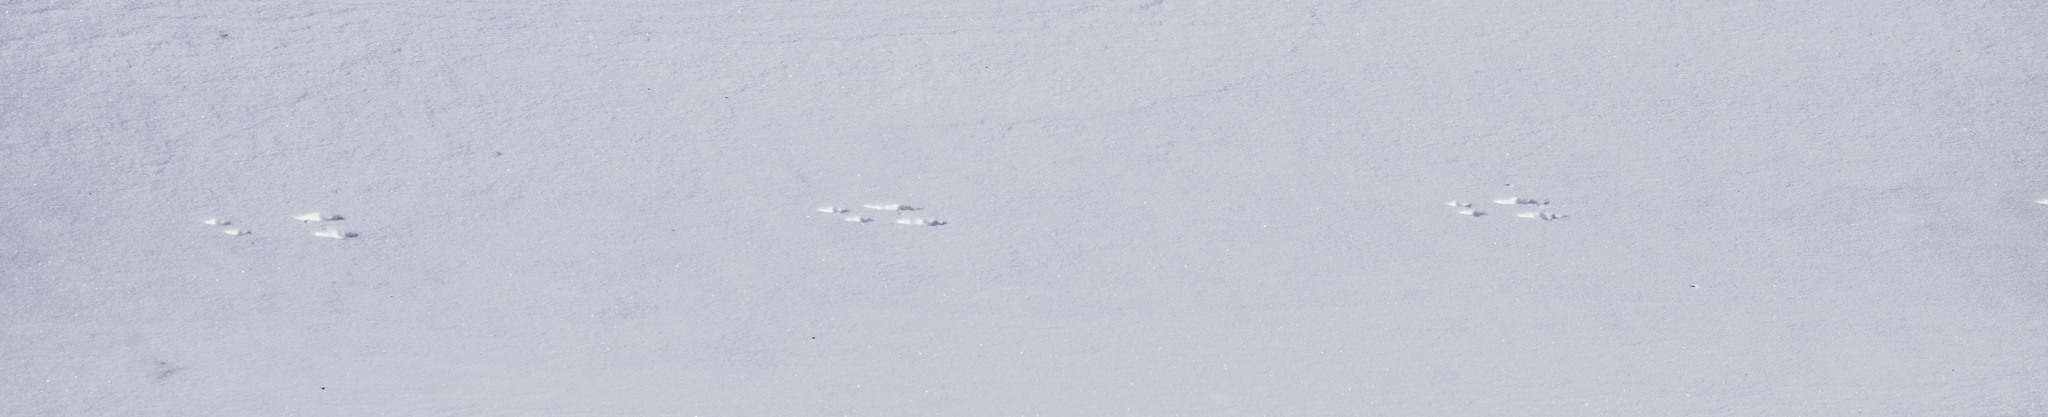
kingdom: Animalia
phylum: Chordata
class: Mammalia
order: Rodentia
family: Sciuridae
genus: Sciurus
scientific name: Sciurus vulgaris
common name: Eurasian red squirrel
